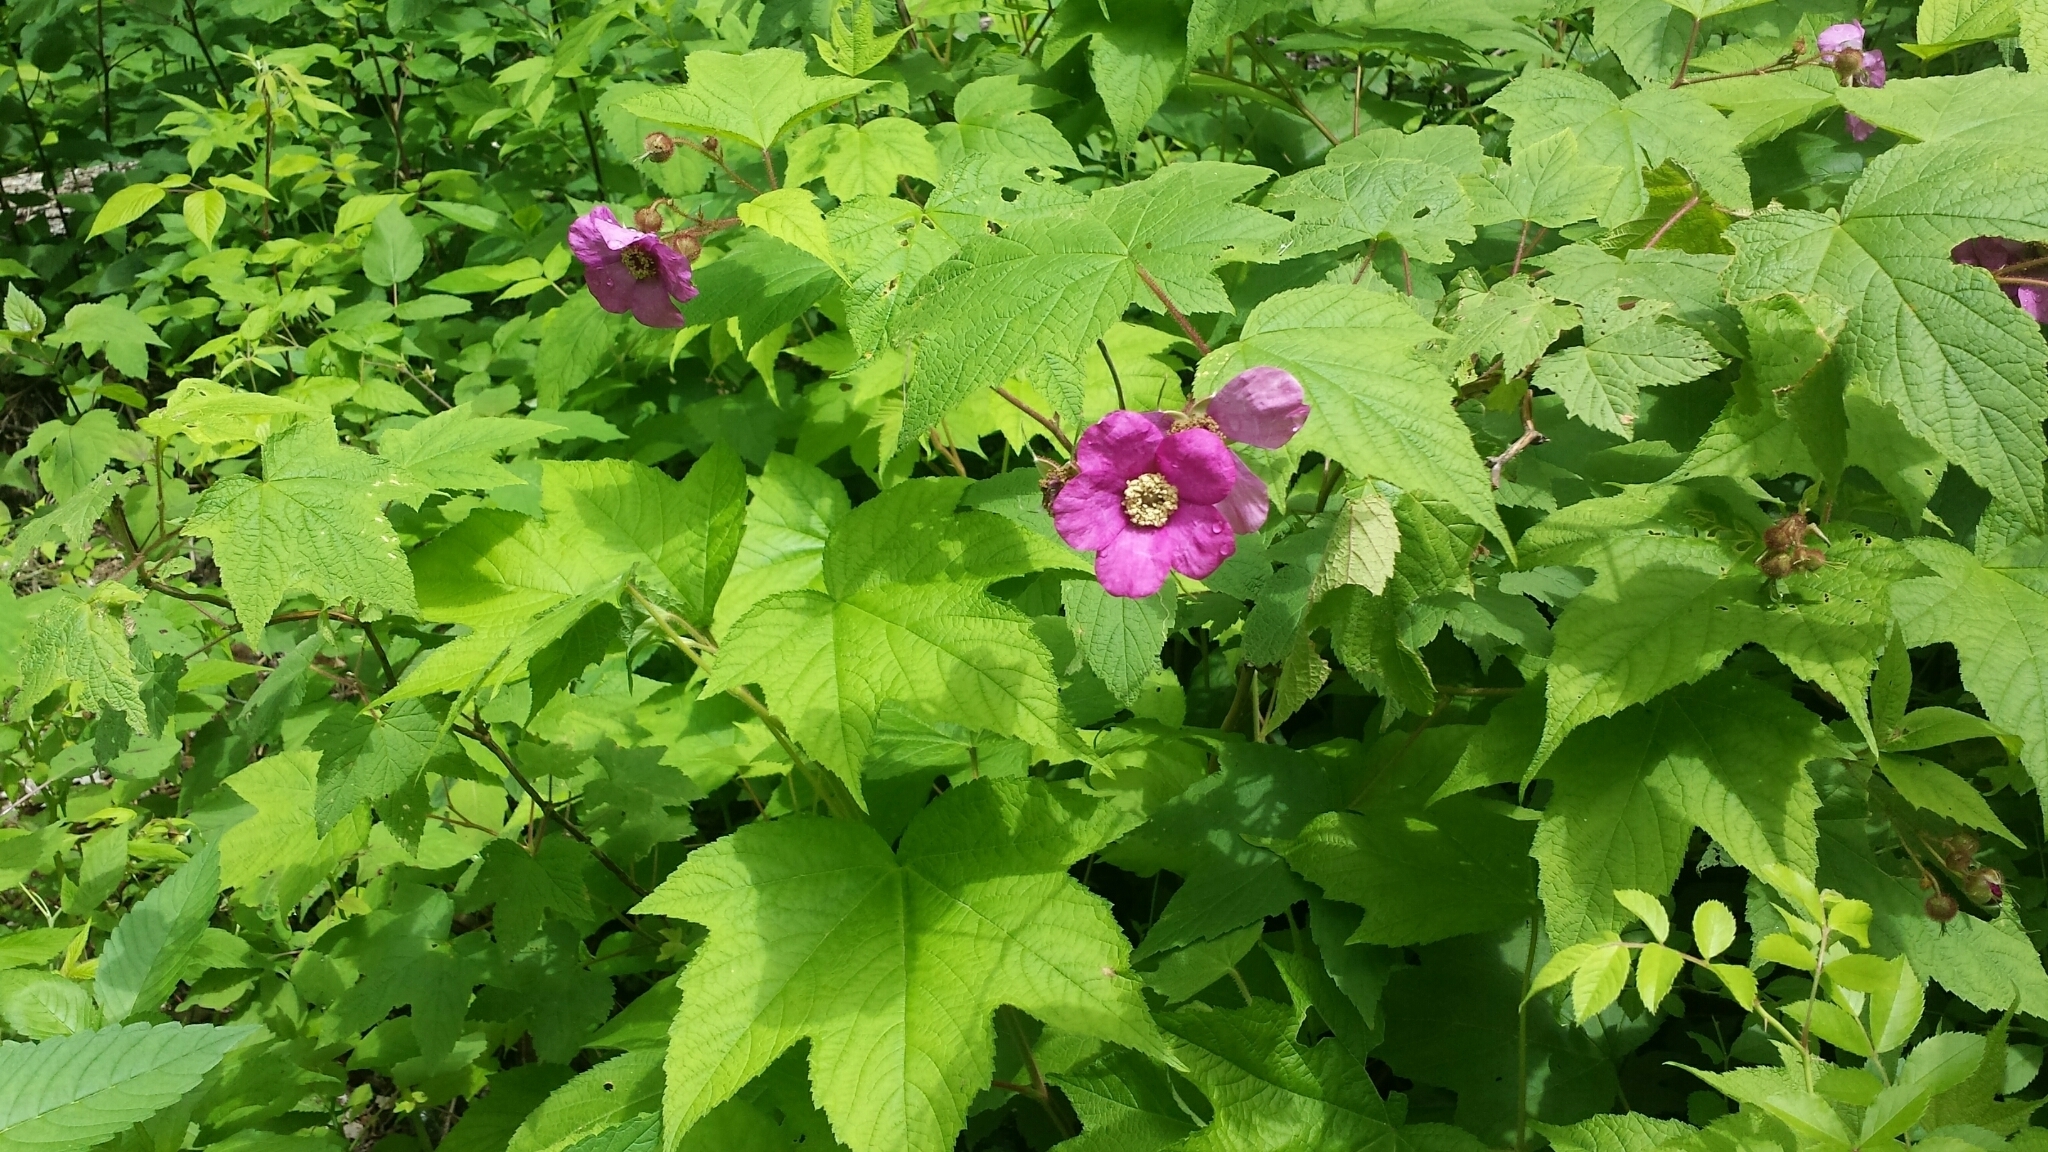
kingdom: Plantae
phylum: Tracheophyta
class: Magnoliopsida
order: Rosales
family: Rosaceae
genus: Rubus
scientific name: Rubus odoratus
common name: Purple-flowered raspberry
